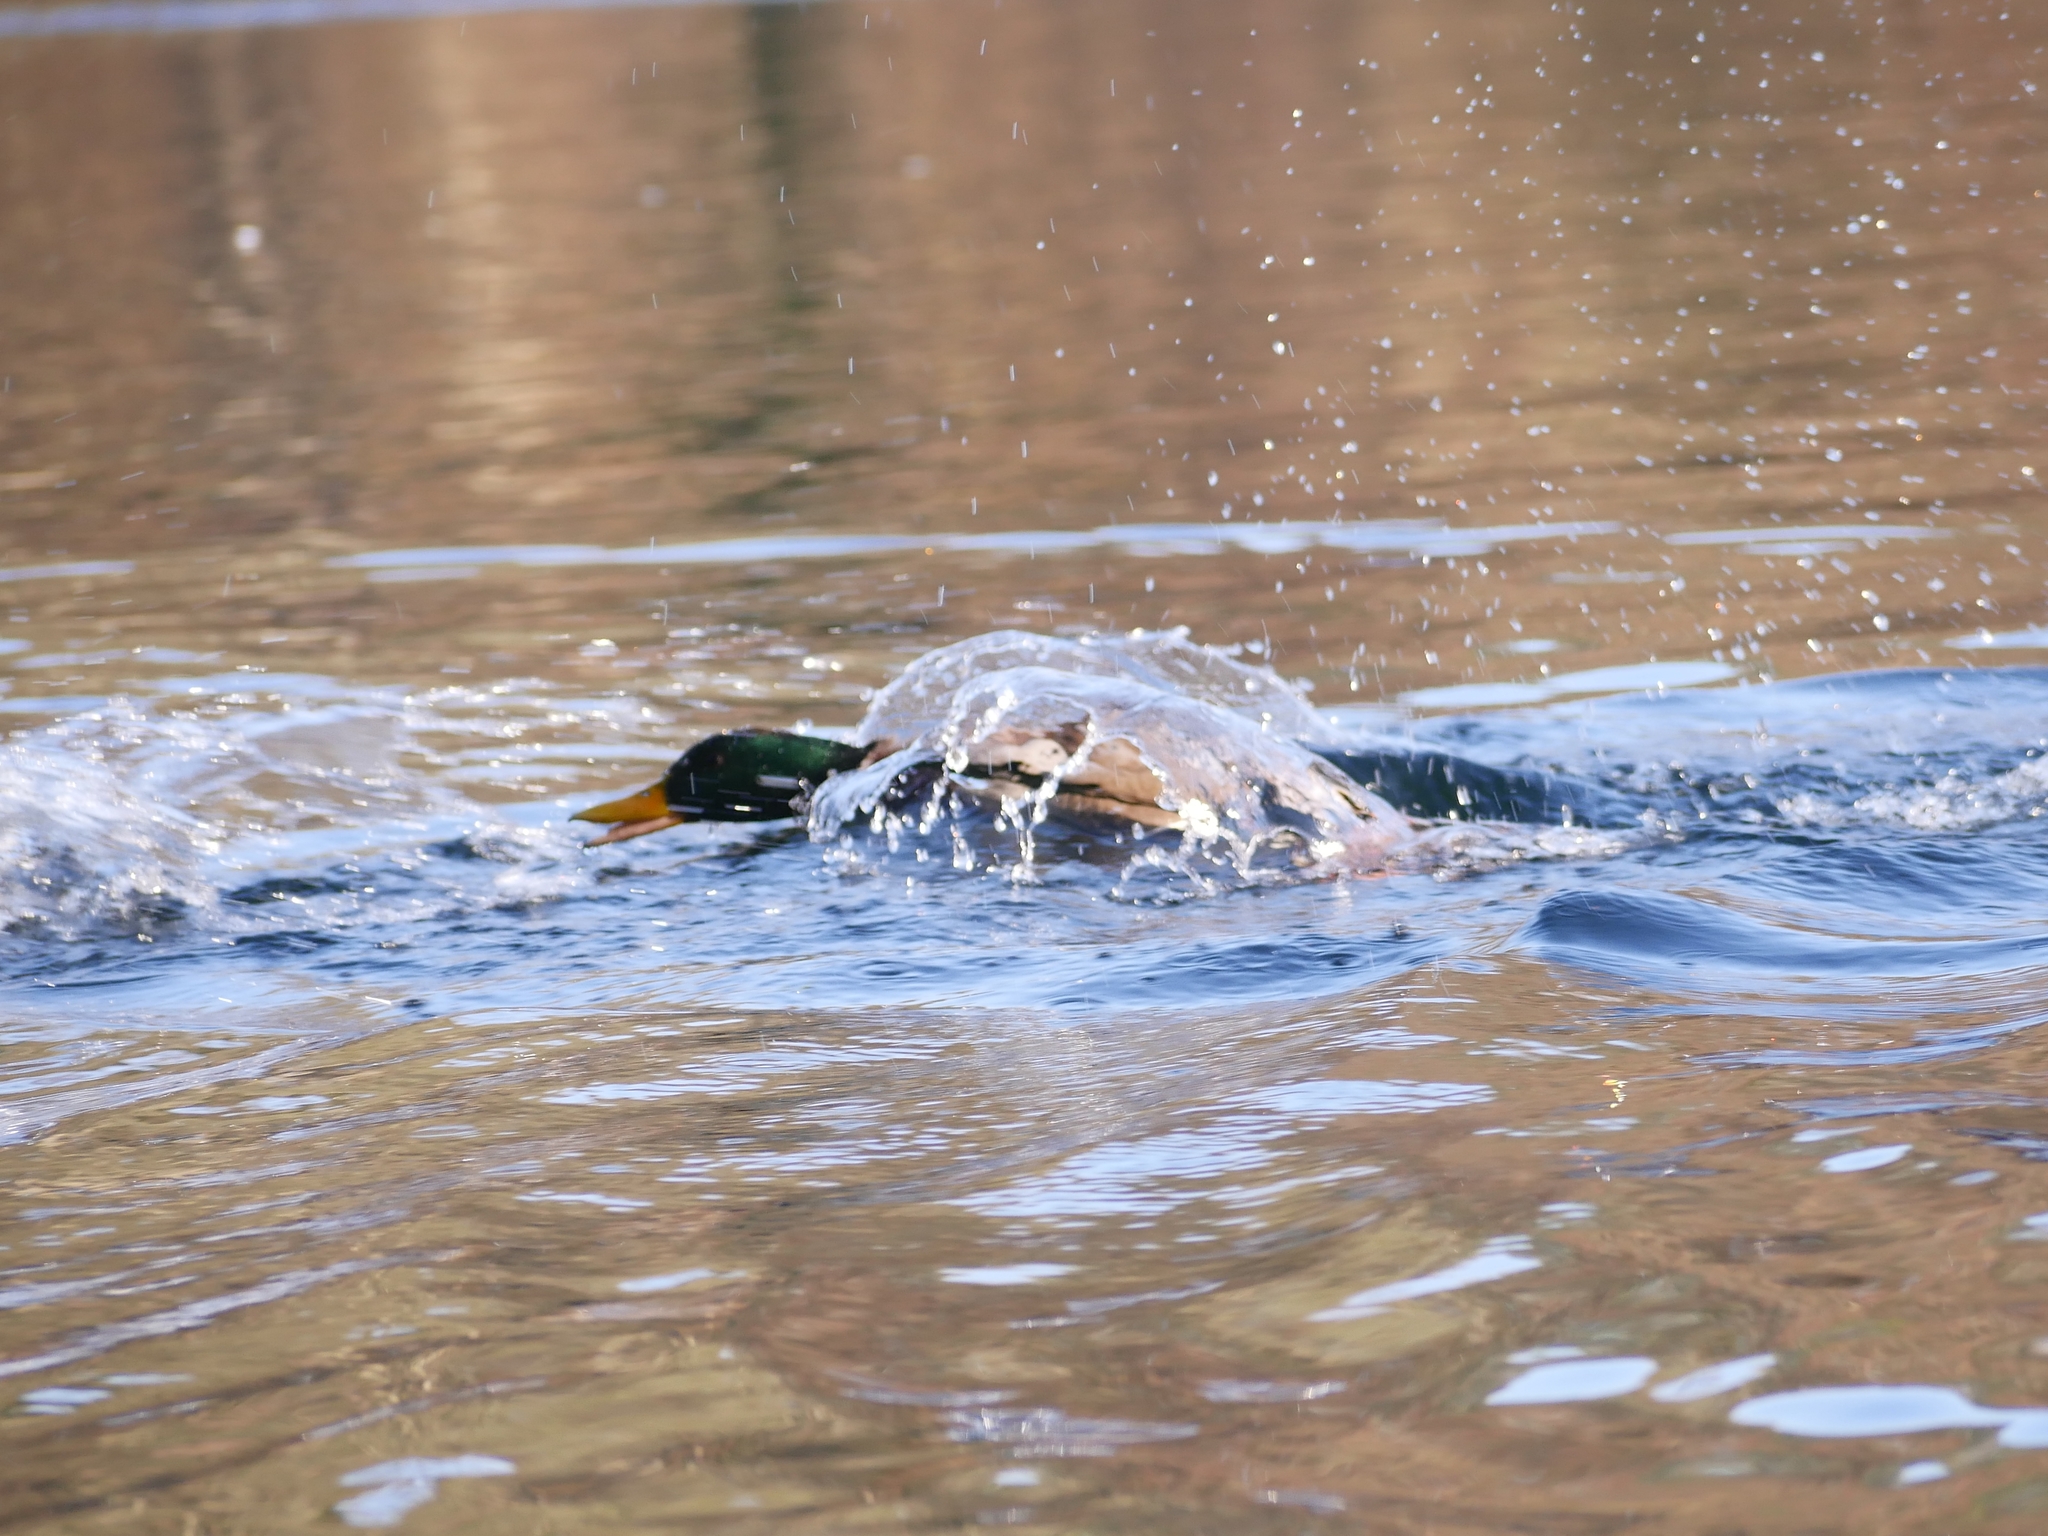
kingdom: Animalia
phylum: Chordata
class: Aves
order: Anseriformes
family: Anatidae
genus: Anas
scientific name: Anas platyrhynchos
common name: Mallard
